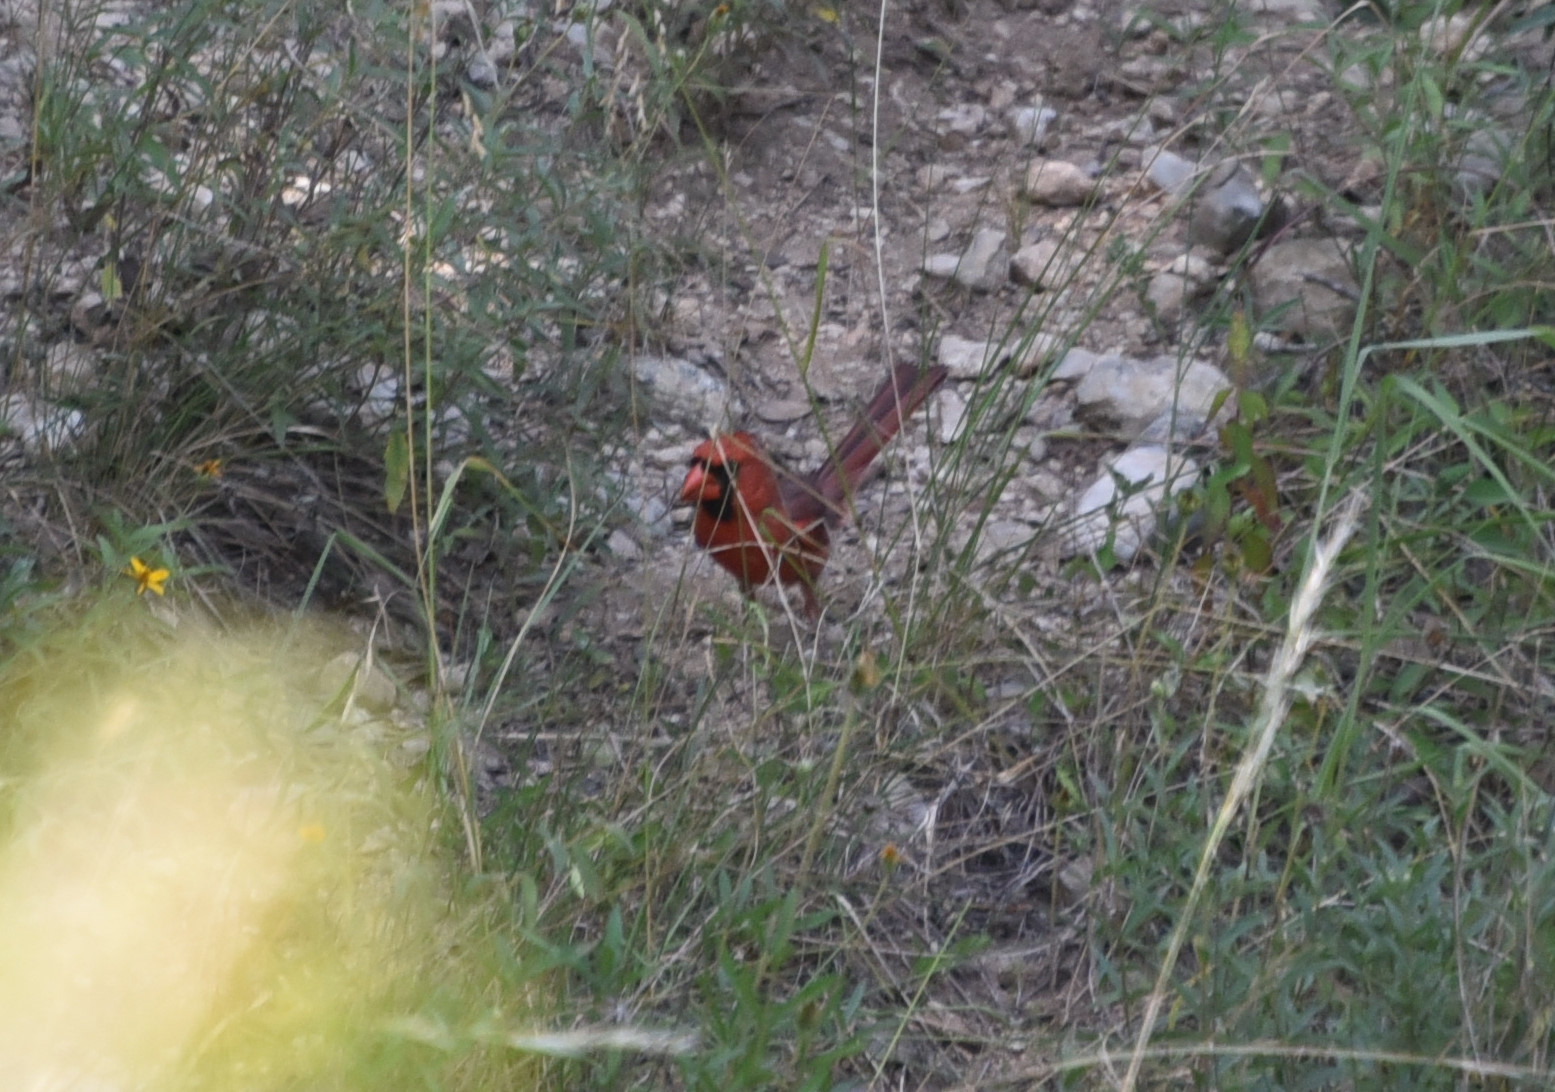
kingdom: Animalia
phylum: Chordata
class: Aves
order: Passeriformes
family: Cardinalidae
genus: Cardinalis
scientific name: Cardinalis cardinalis
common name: Northern cardinal
